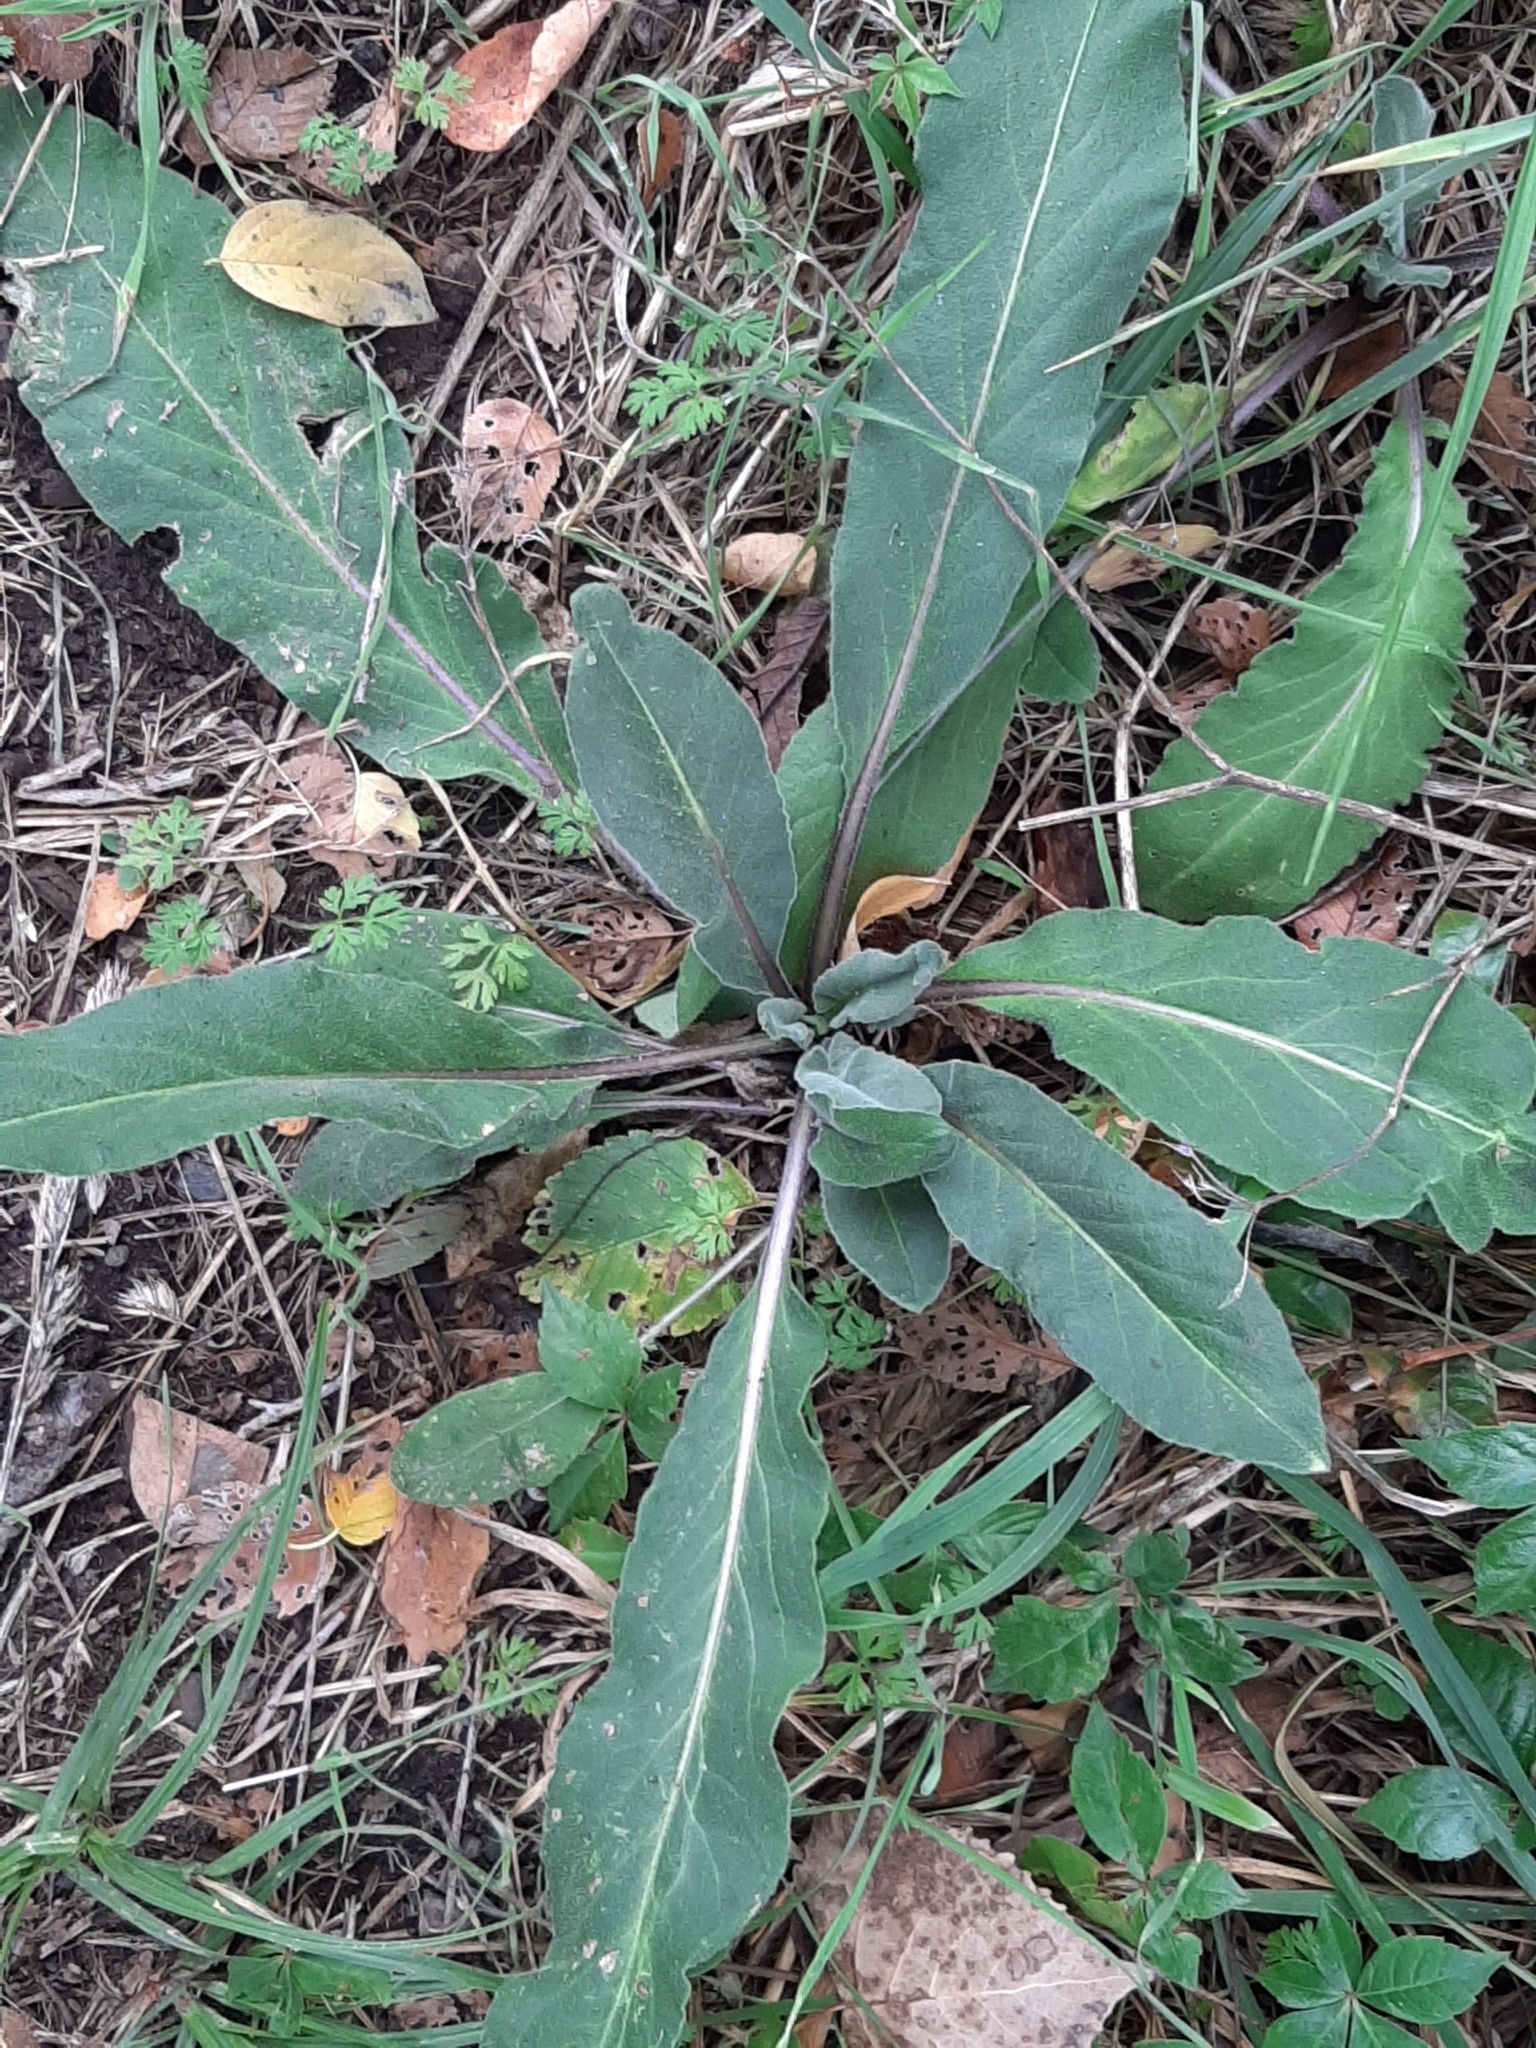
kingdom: Plantae
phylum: Tracheophyta
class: Magnoliopsida
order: Brassicales
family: Brassicaceae
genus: Hesperis
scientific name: Hesperis matronalis
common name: Dame's-violet
